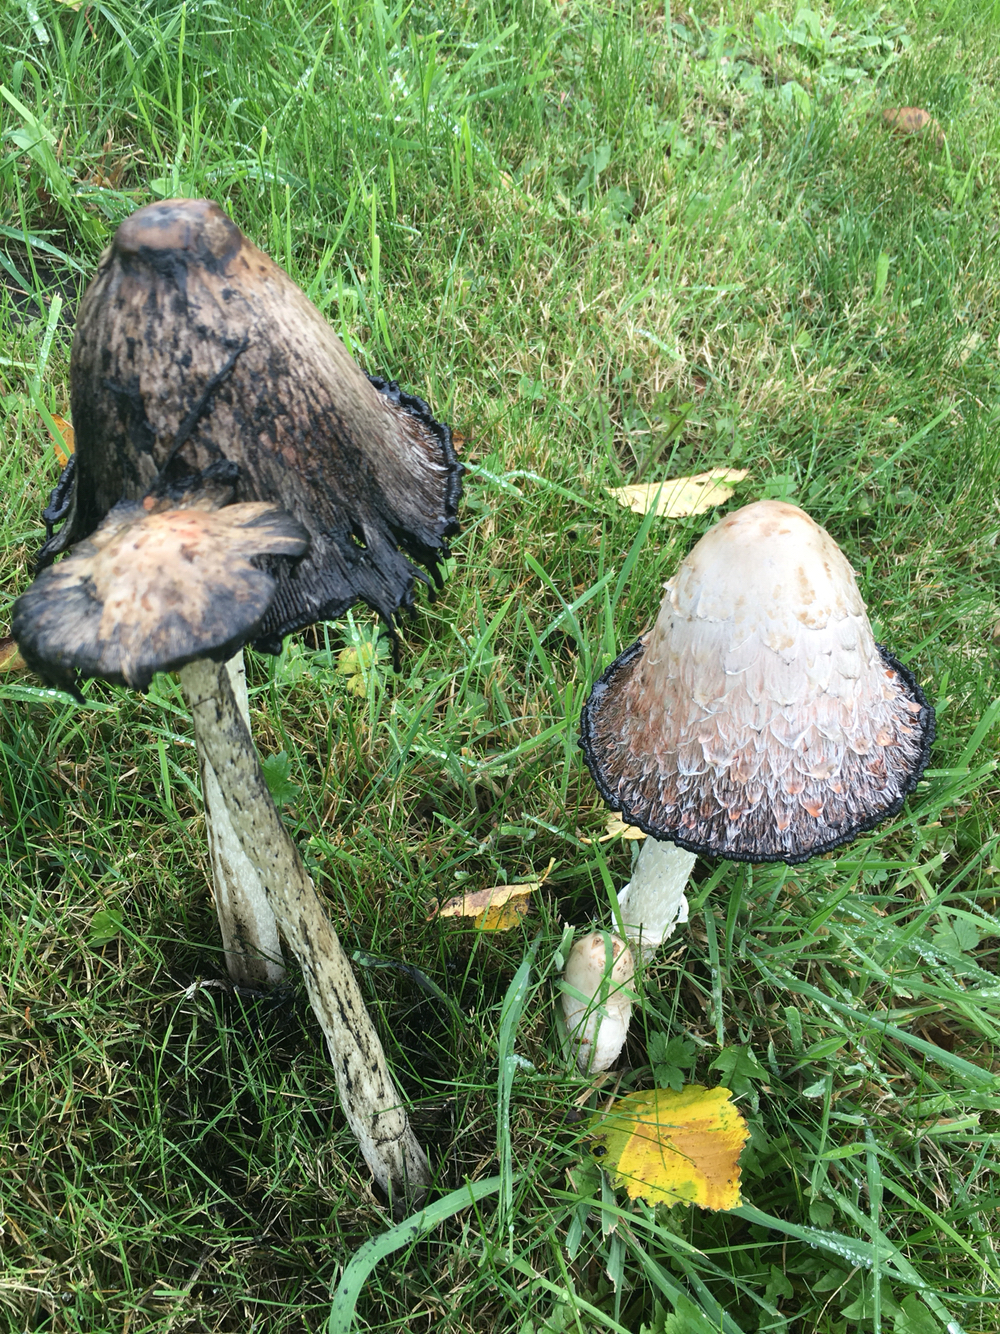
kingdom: Fungi
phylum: Basidiomycota
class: Agaricomycetes
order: Agaricales
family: Agaricaceae
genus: Coprinus
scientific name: Coprinus comatus
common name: Lawyer's wig
